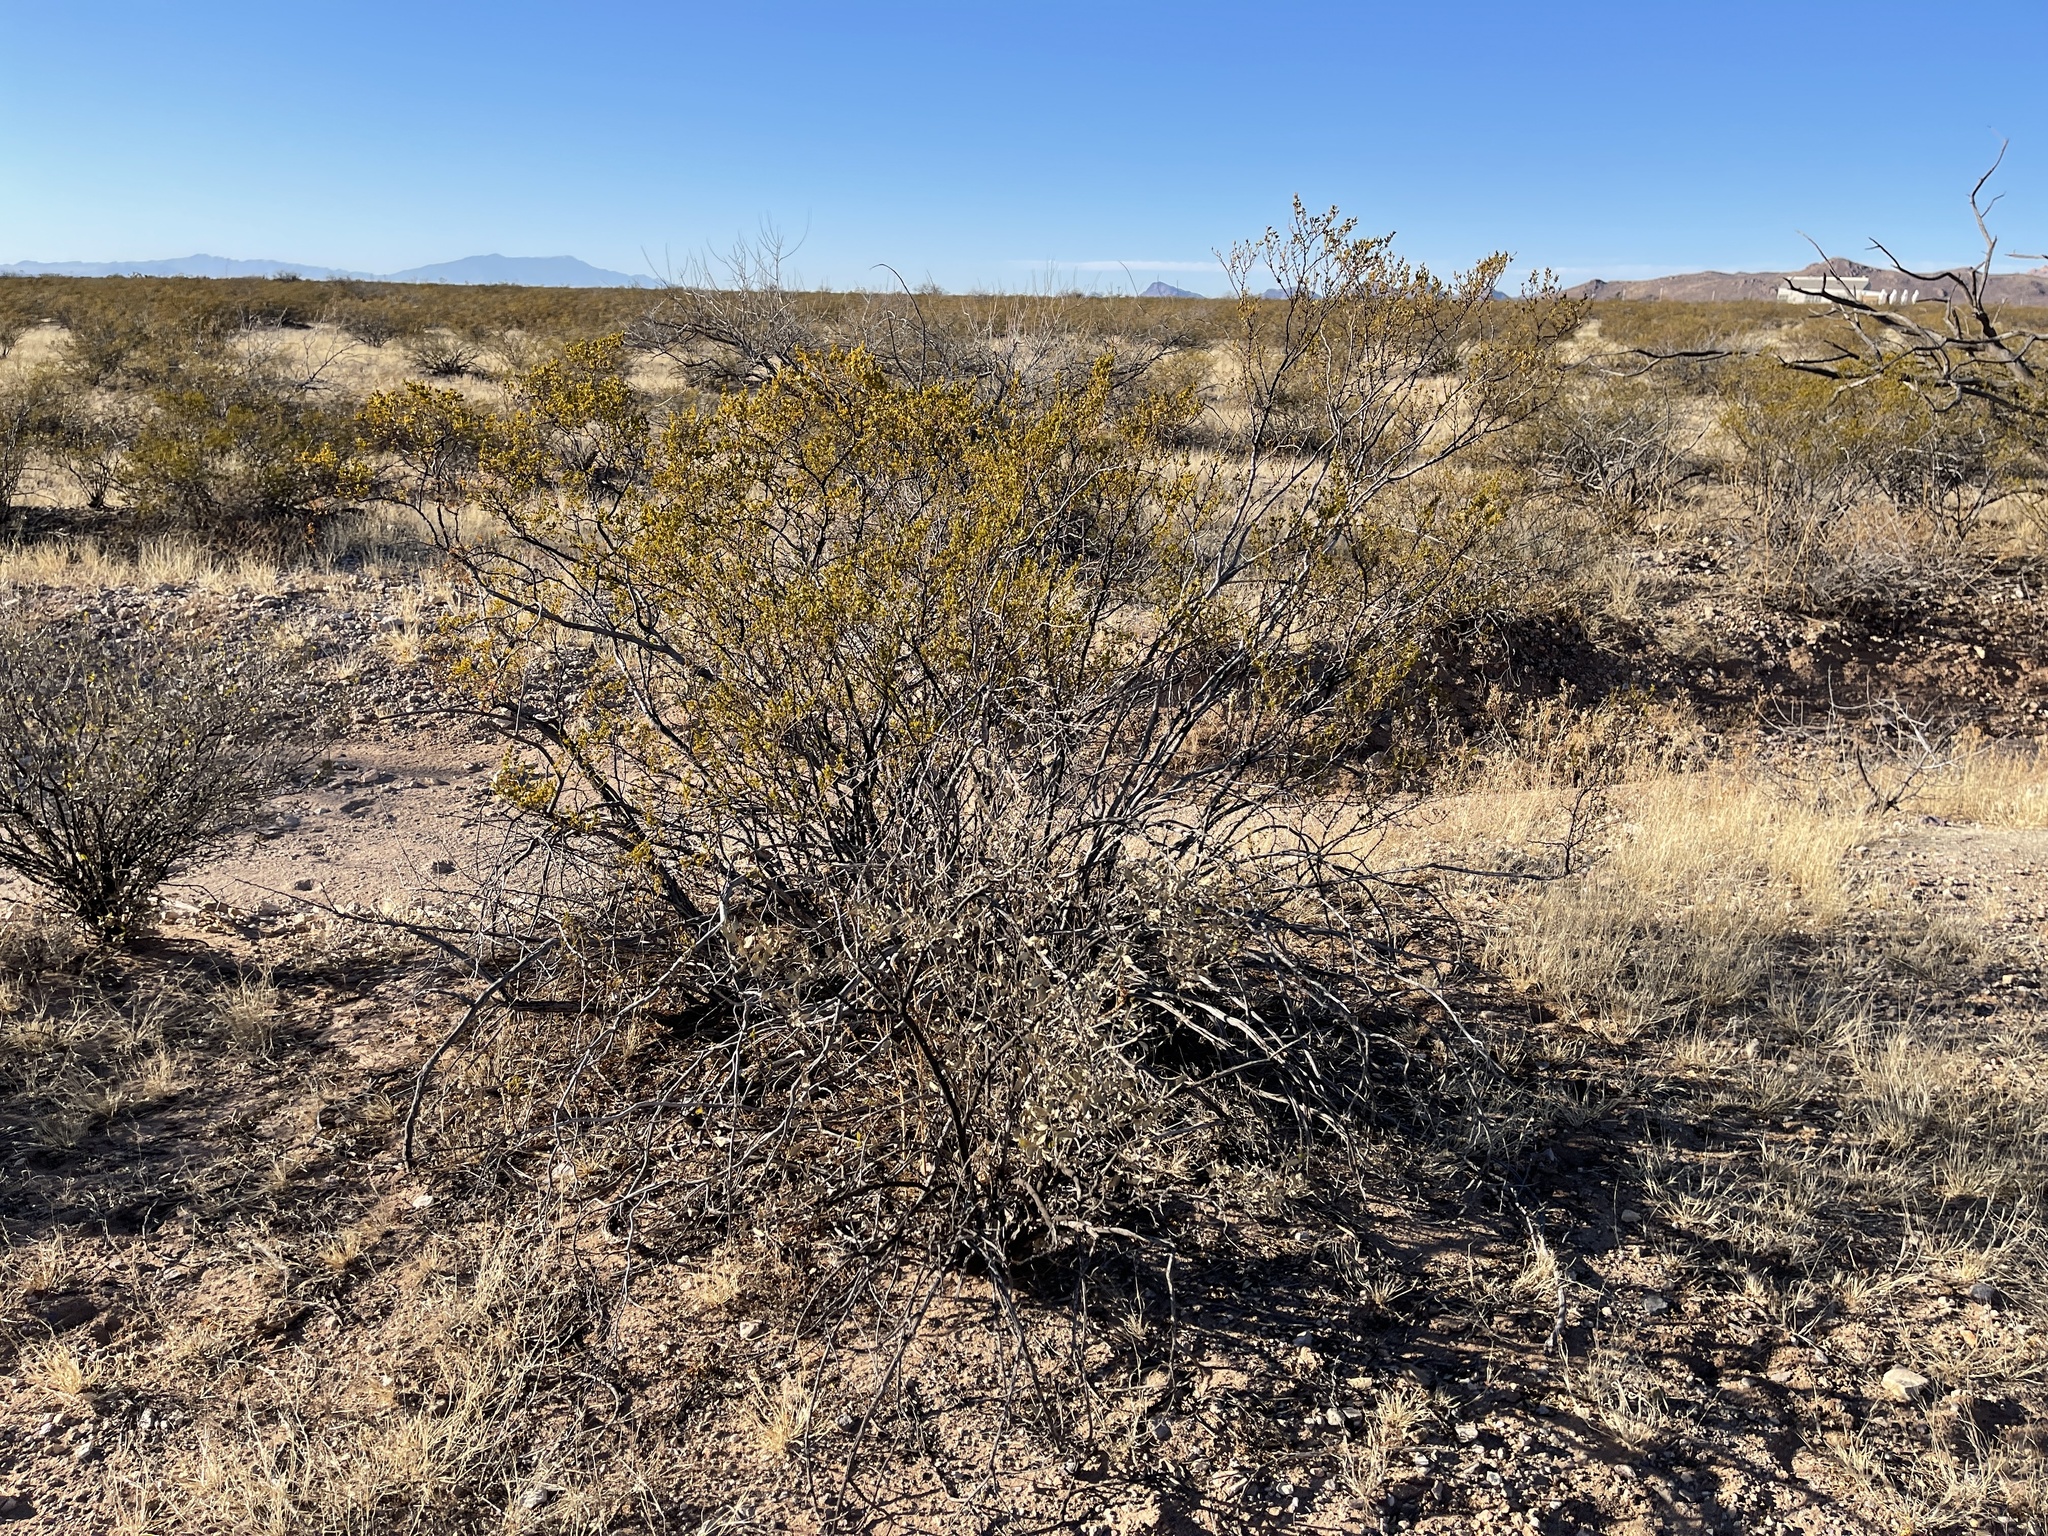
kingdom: Plantae
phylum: Tracheophyta
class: Magnoliopsida
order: Zygophyllales
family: Zygophyllaceae
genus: Larrea
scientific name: Larrea tridentata
